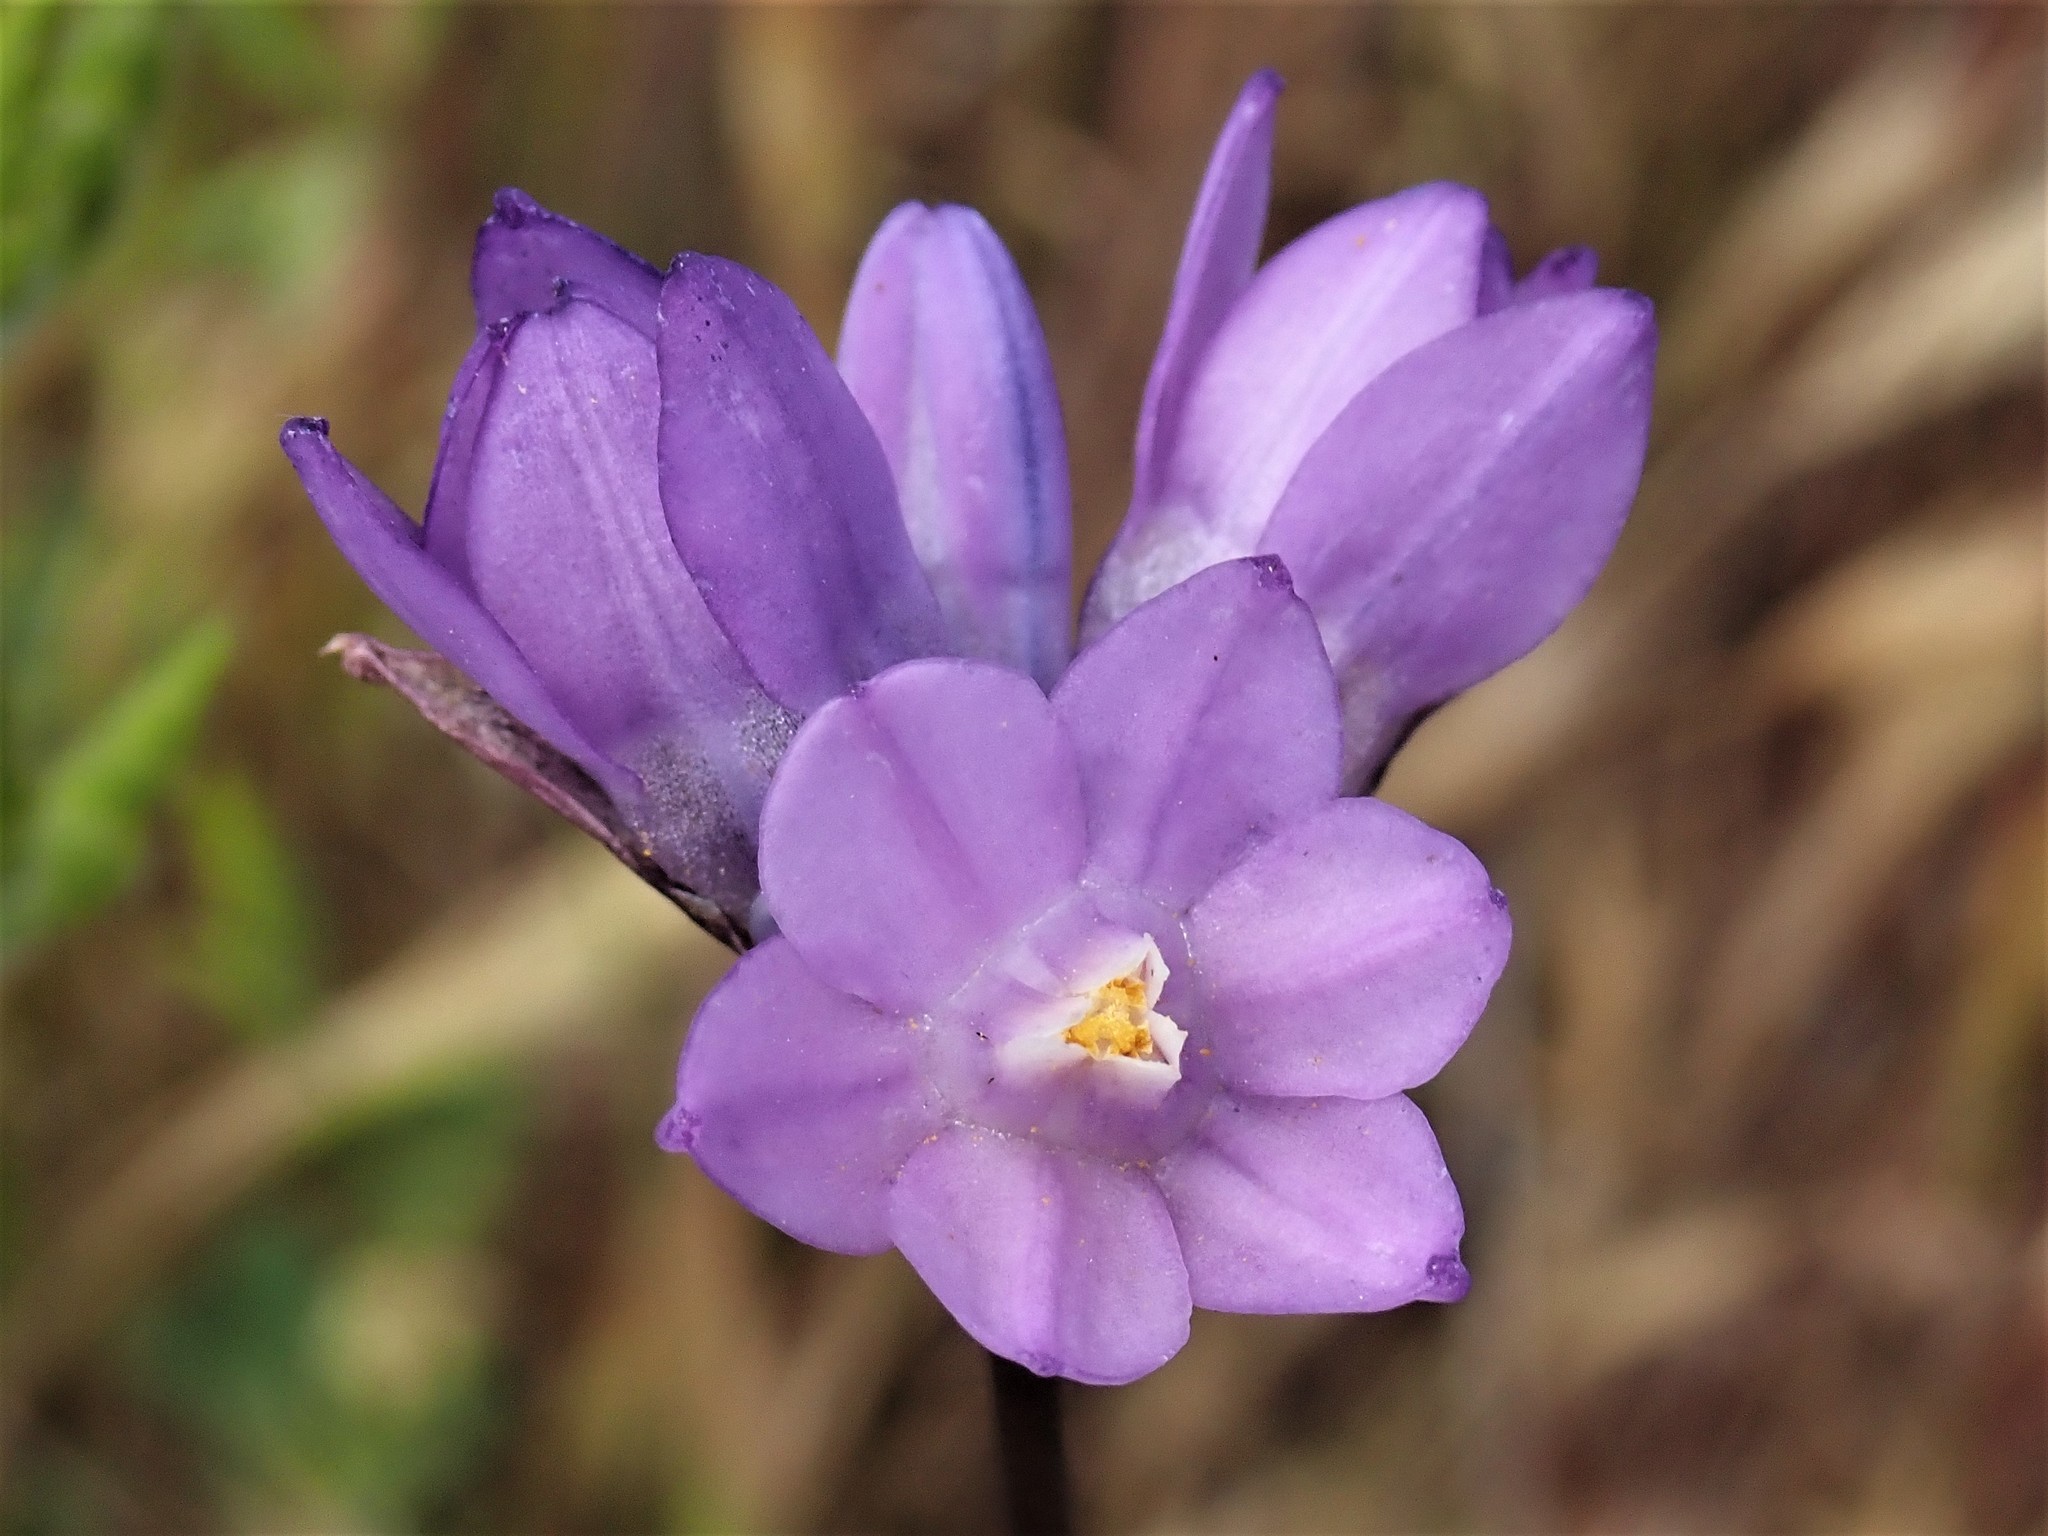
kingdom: Plantae
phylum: Tracheophyta
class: Liliopsida
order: Asparagales
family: Asparagaceae
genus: Dipterostemon
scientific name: Dipterostemon capitatus
